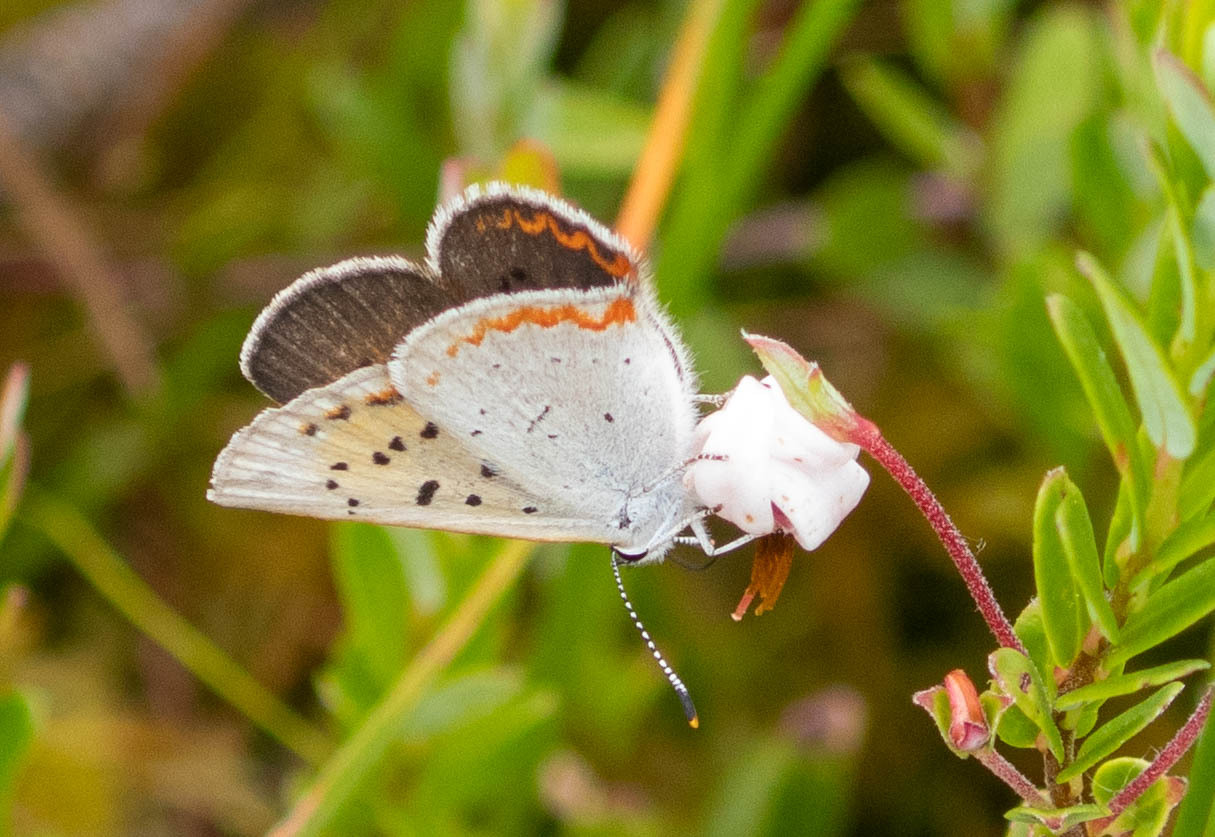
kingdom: Animalia
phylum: Arthropoda
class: Insecta
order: Lepidoptera
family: Lycaenidae
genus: Tharsalea
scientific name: Tharsalea epixanthe
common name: Bog copper
